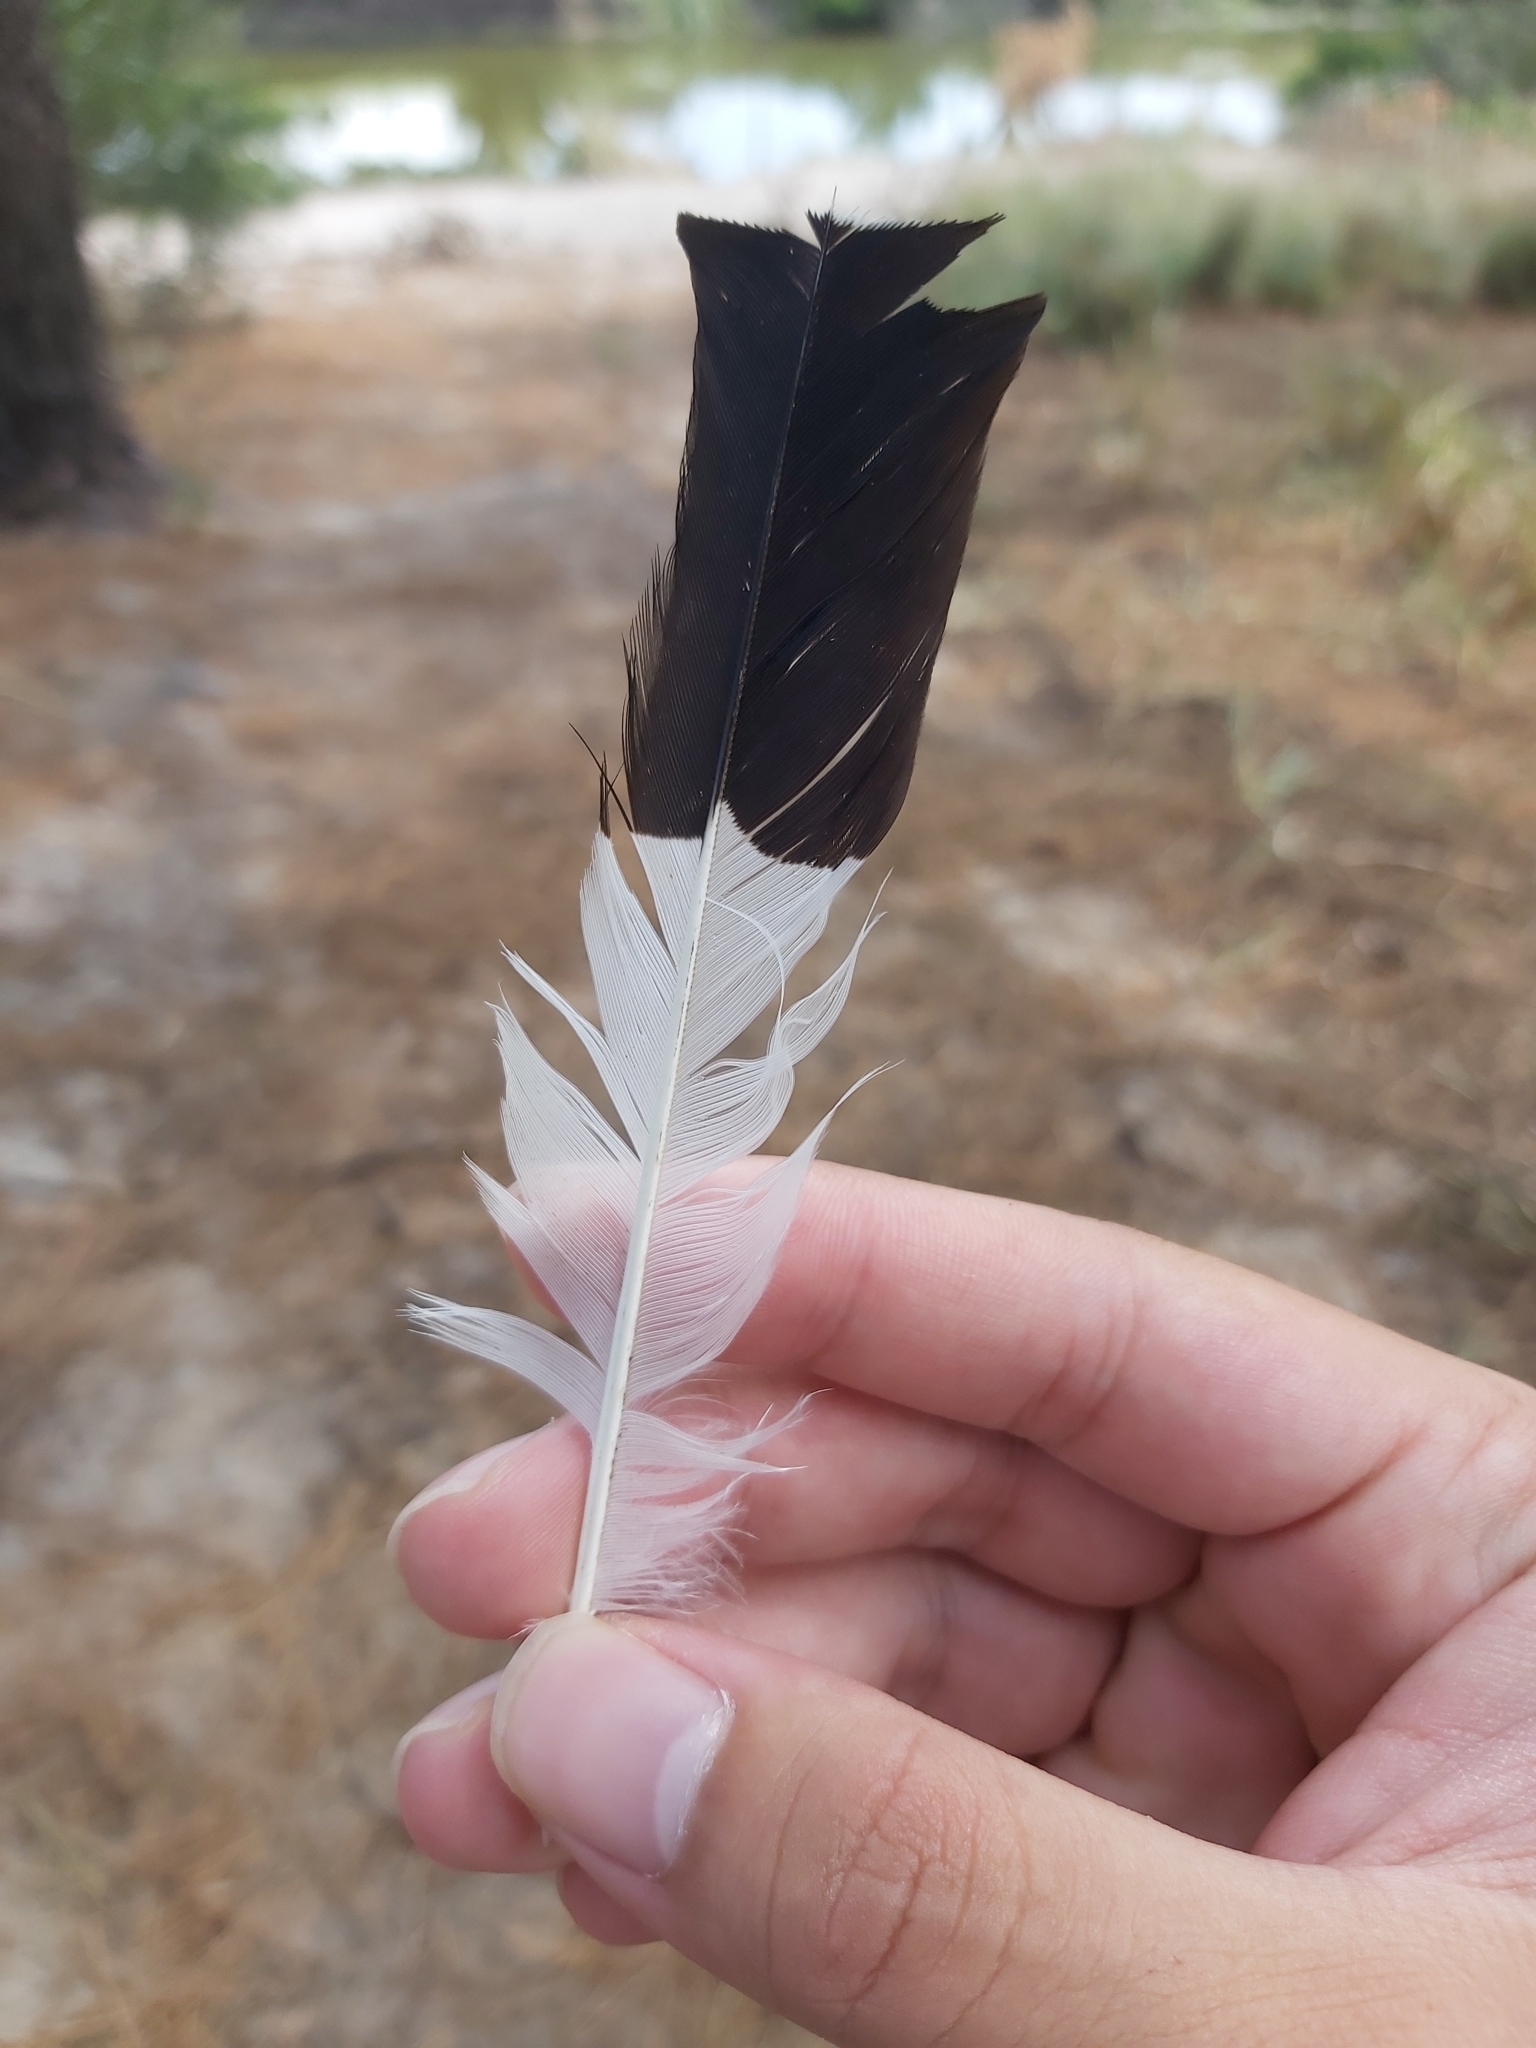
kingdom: Animalia
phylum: Chordata
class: Aves
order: Passeriformes
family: Monarchidae
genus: Grallina
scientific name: Grallina cyanoleuca
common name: Magpie-lark
